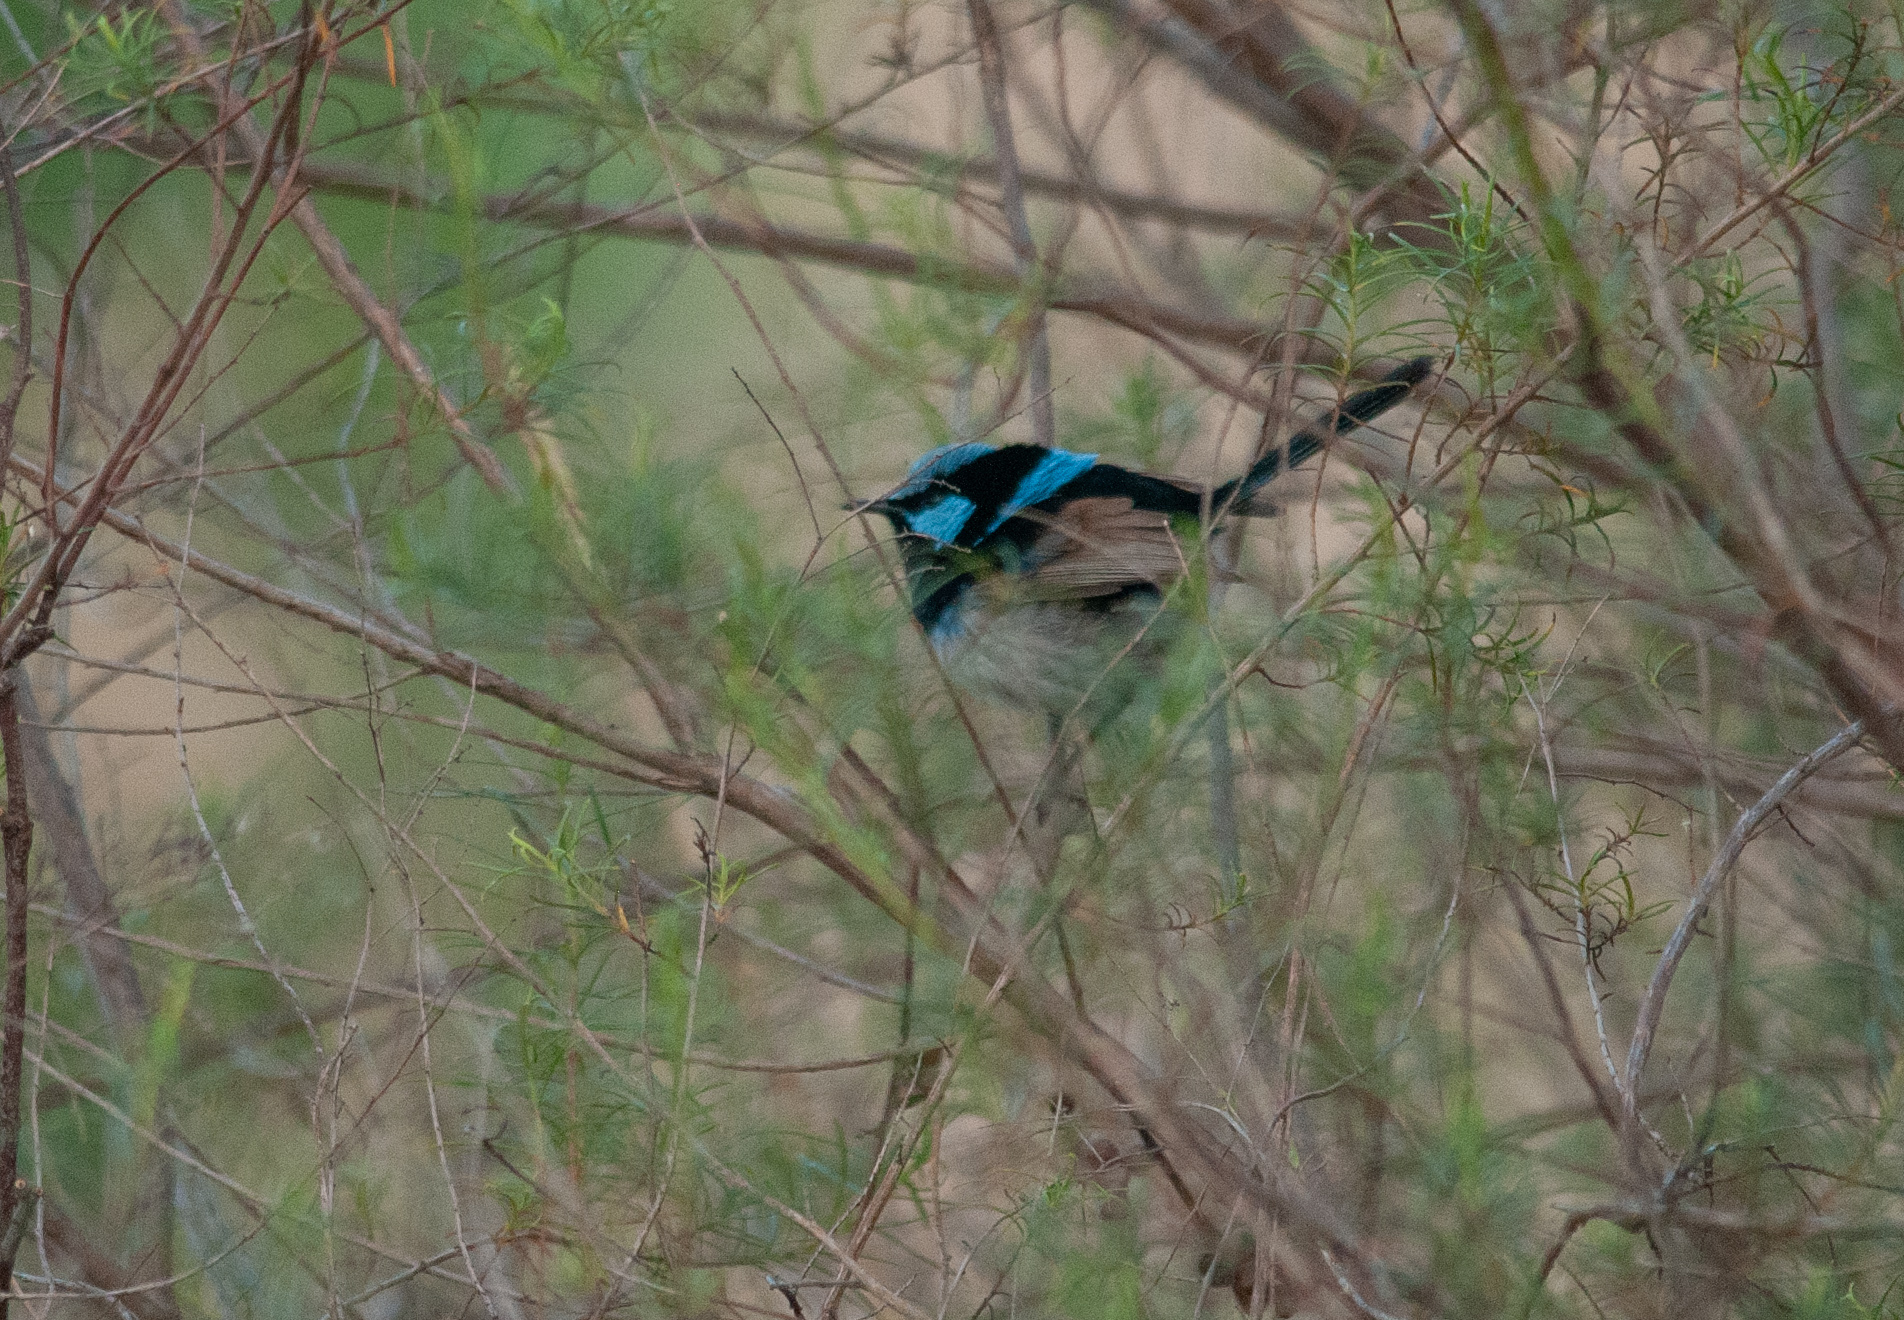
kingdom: Animalia
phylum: Chordata
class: Aves
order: Passeriformes
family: Maluridae
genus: Malurus
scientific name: Malurus cyaneus
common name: Superb fairywren
